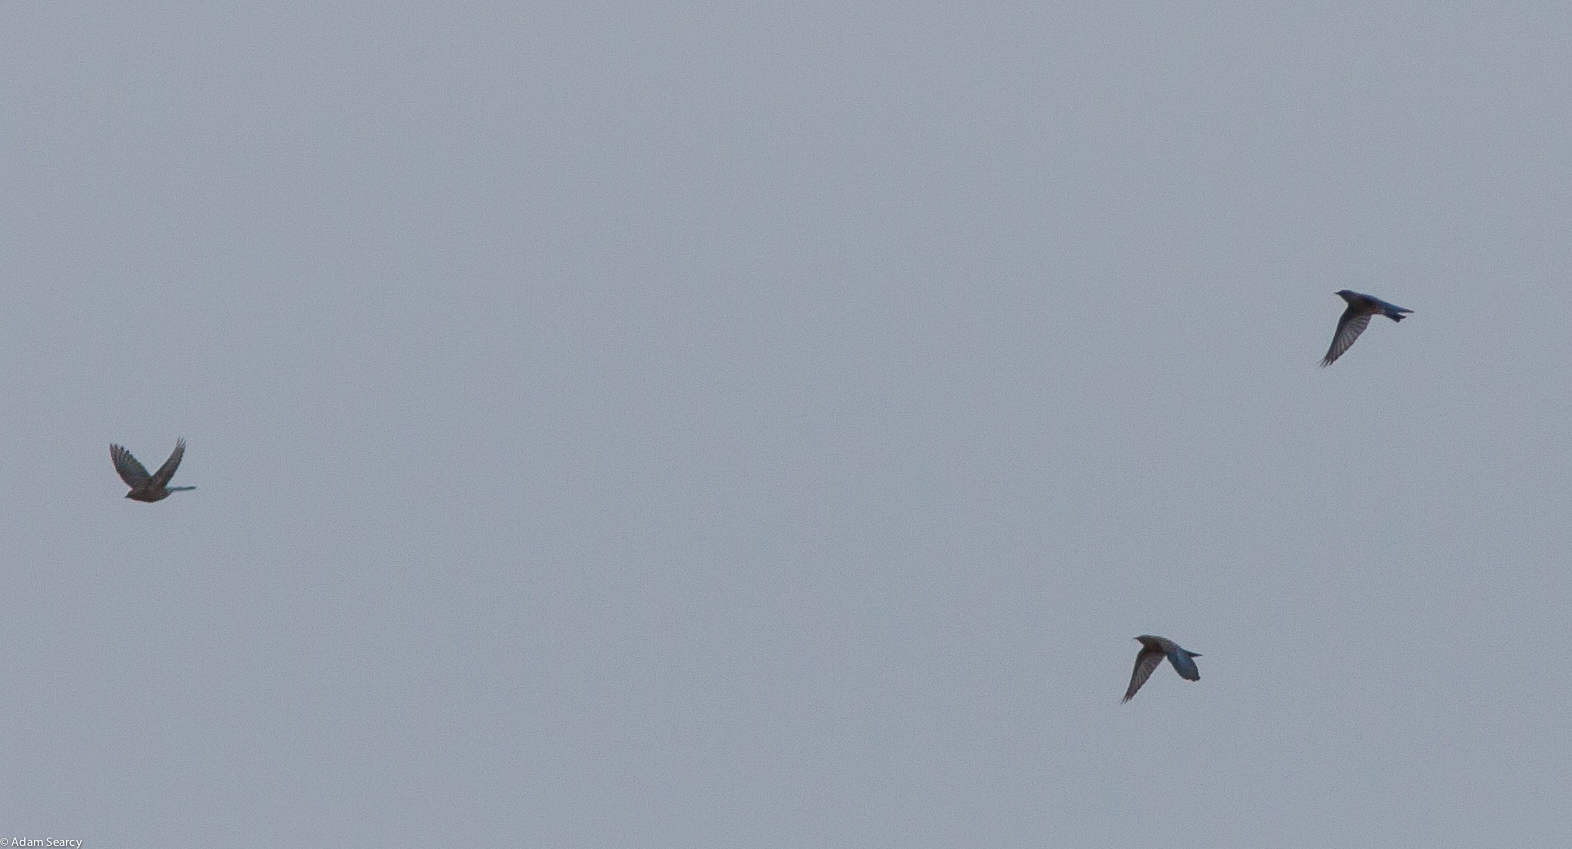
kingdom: Animalia
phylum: Chordata
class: Aves
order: Passeriformes
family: Turdidae
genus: Sialia
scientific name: Sialia currucoides
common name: Mountain bluebird
